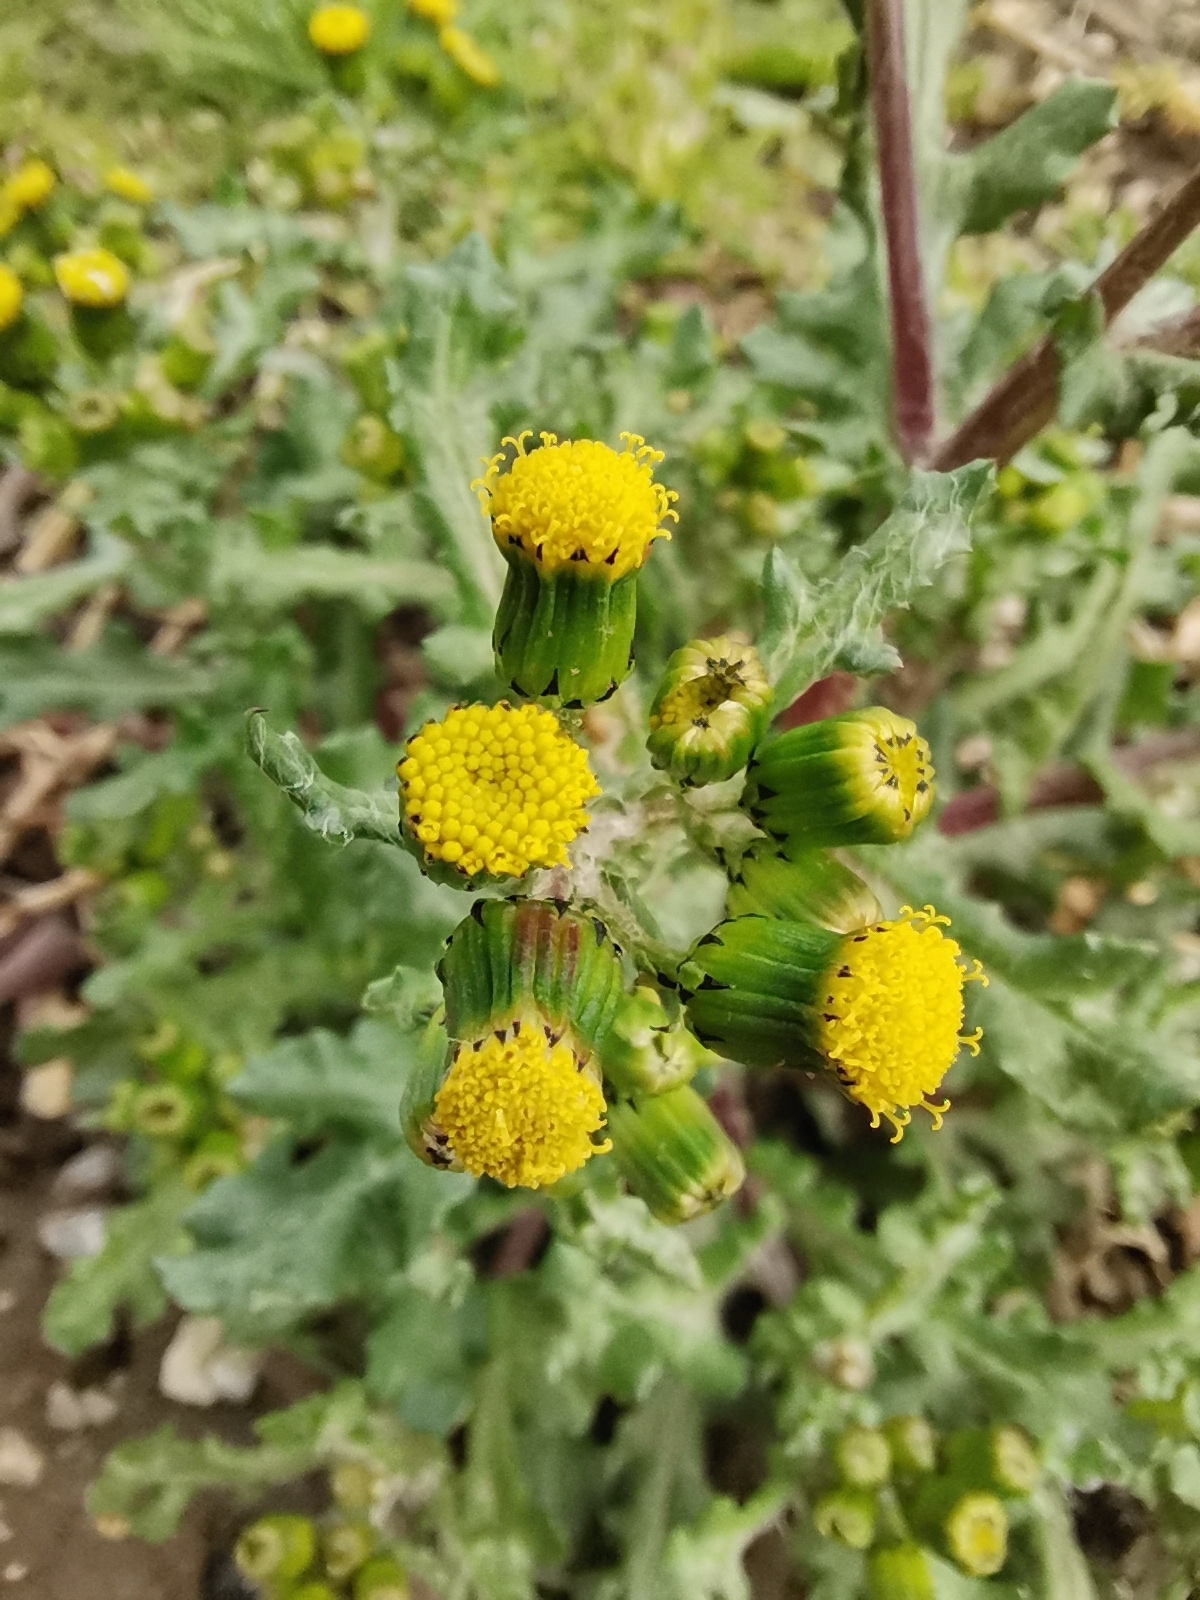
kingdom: Plantae
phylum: Tracheophyta
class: Magnoliopsida
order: Asterales
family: Asteraceae
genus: Senecio
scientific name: Senecio vulgaris
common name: Old-man-in-the-spring
